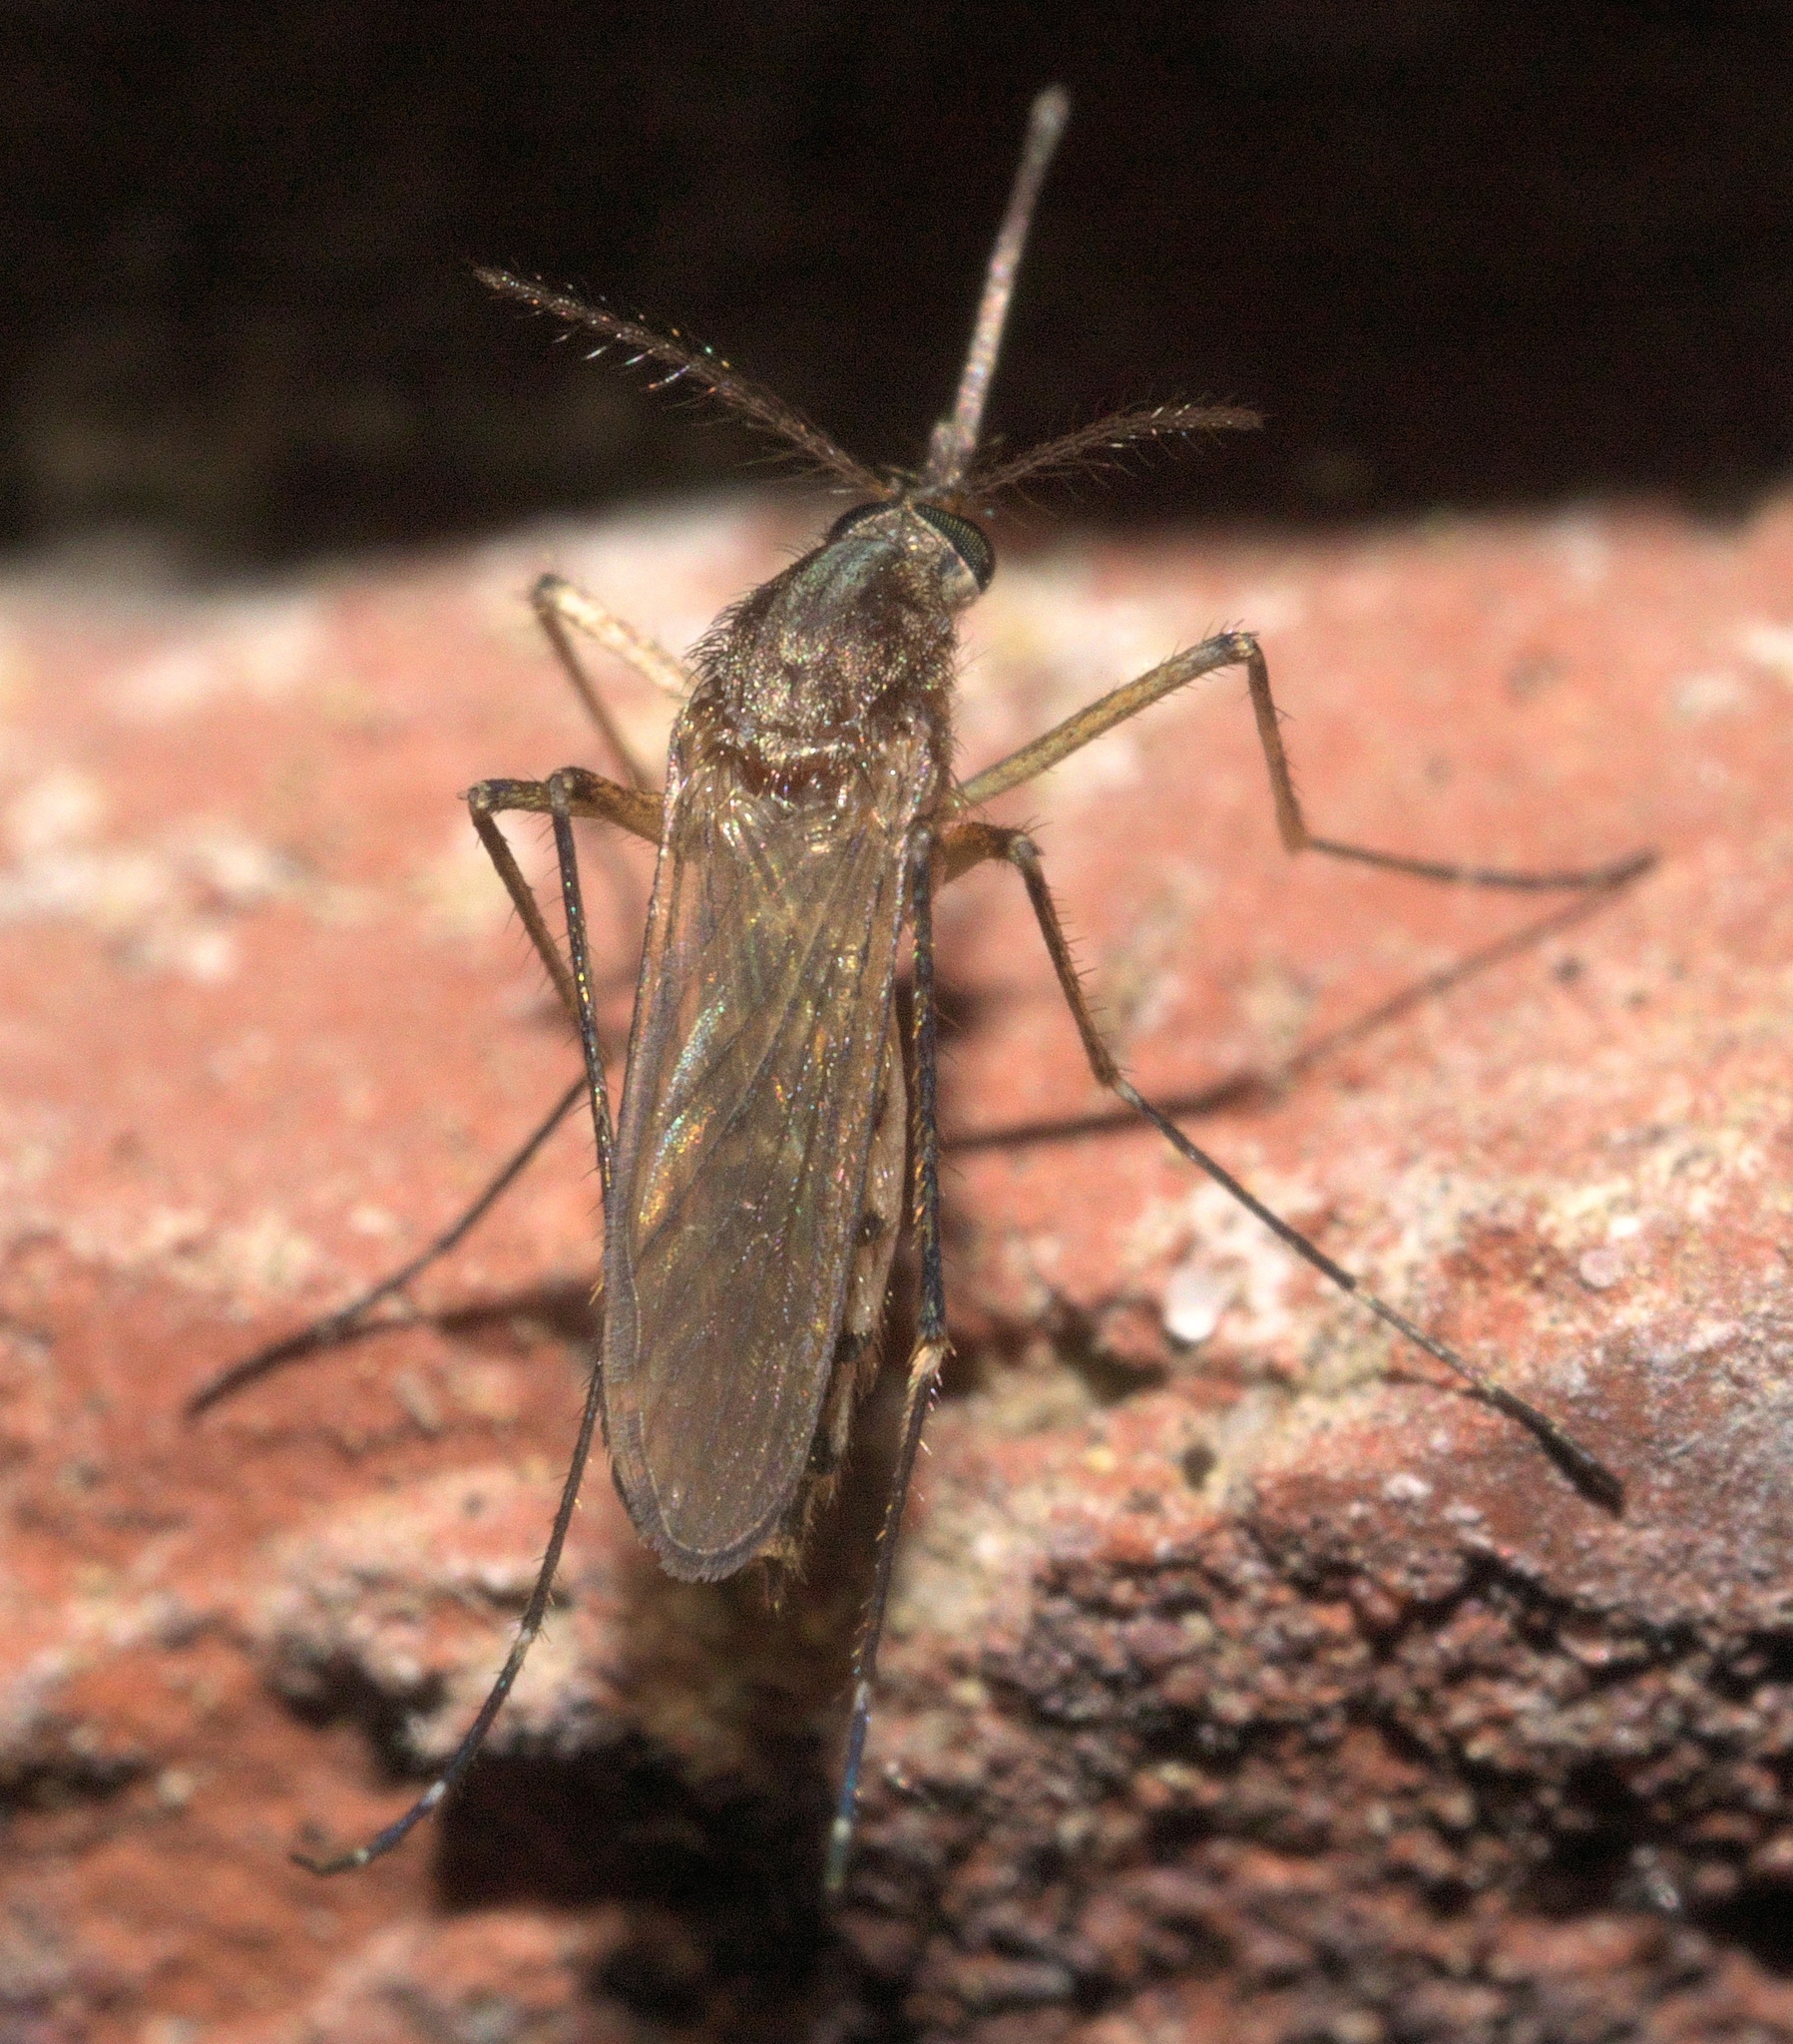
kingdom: Animalia
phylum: Arthropoda
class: Insecta
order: Diptera
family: Culicidae
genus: Aedes
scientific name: Aedes vexans
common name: Inland floodwater mosquito
